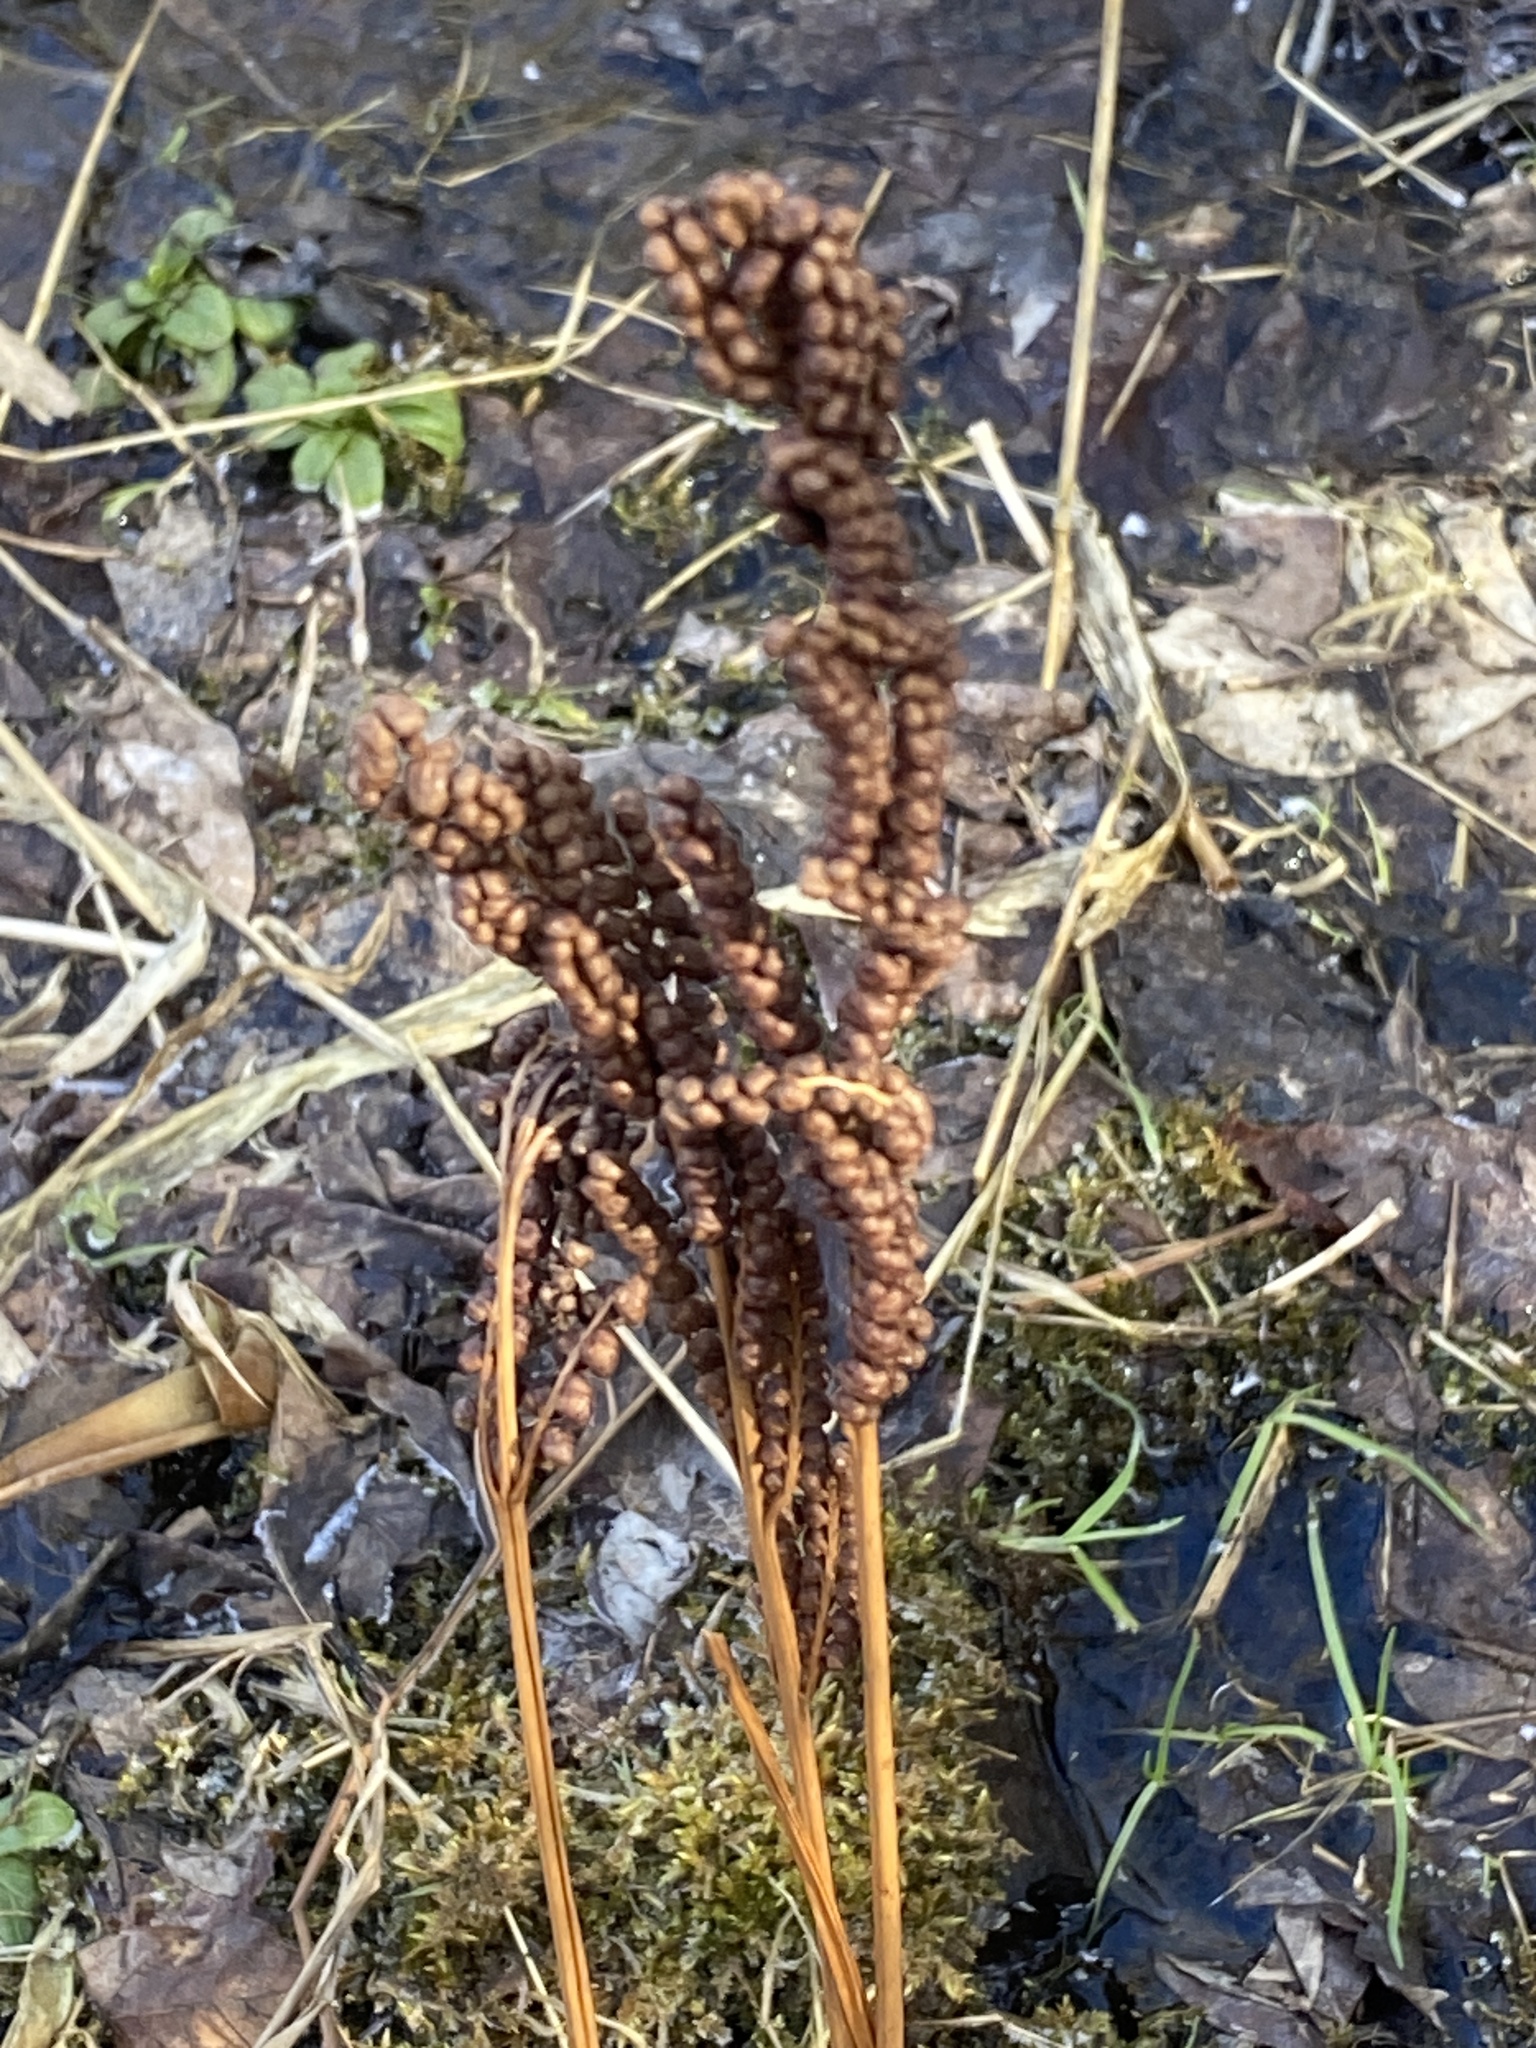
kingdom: Plantae
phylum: Tracheophyta
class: Polypodiopsida
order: Polypodiales
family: Onocleaceae
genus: Onoclea
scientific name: Onoclea sensibilis
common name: Sensitive fern
